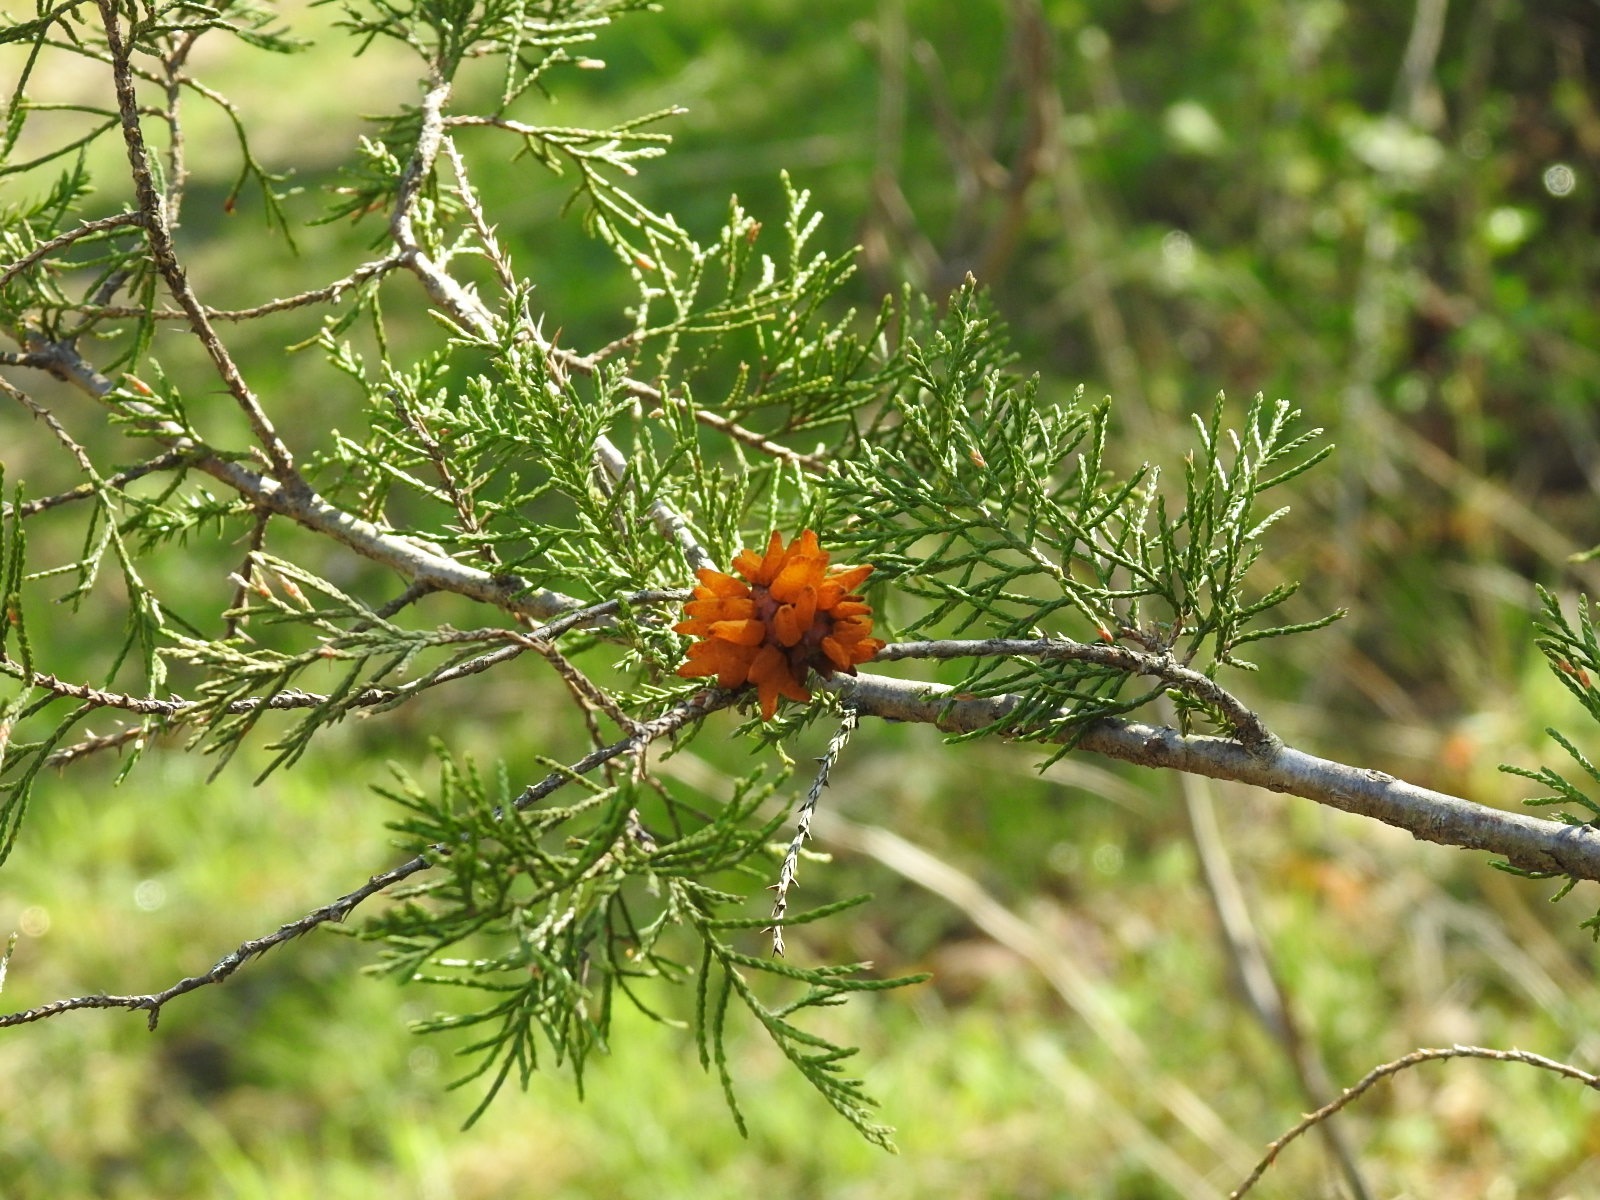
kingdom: Fungi
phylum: Basidiomycota
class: Pucciniomycetes
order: Pucciniales
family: Gymnosporangiaceae
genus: Gymnosporangium
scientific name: Gymnosporangium juniperi-virginianae
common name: Juniper-apple rust
